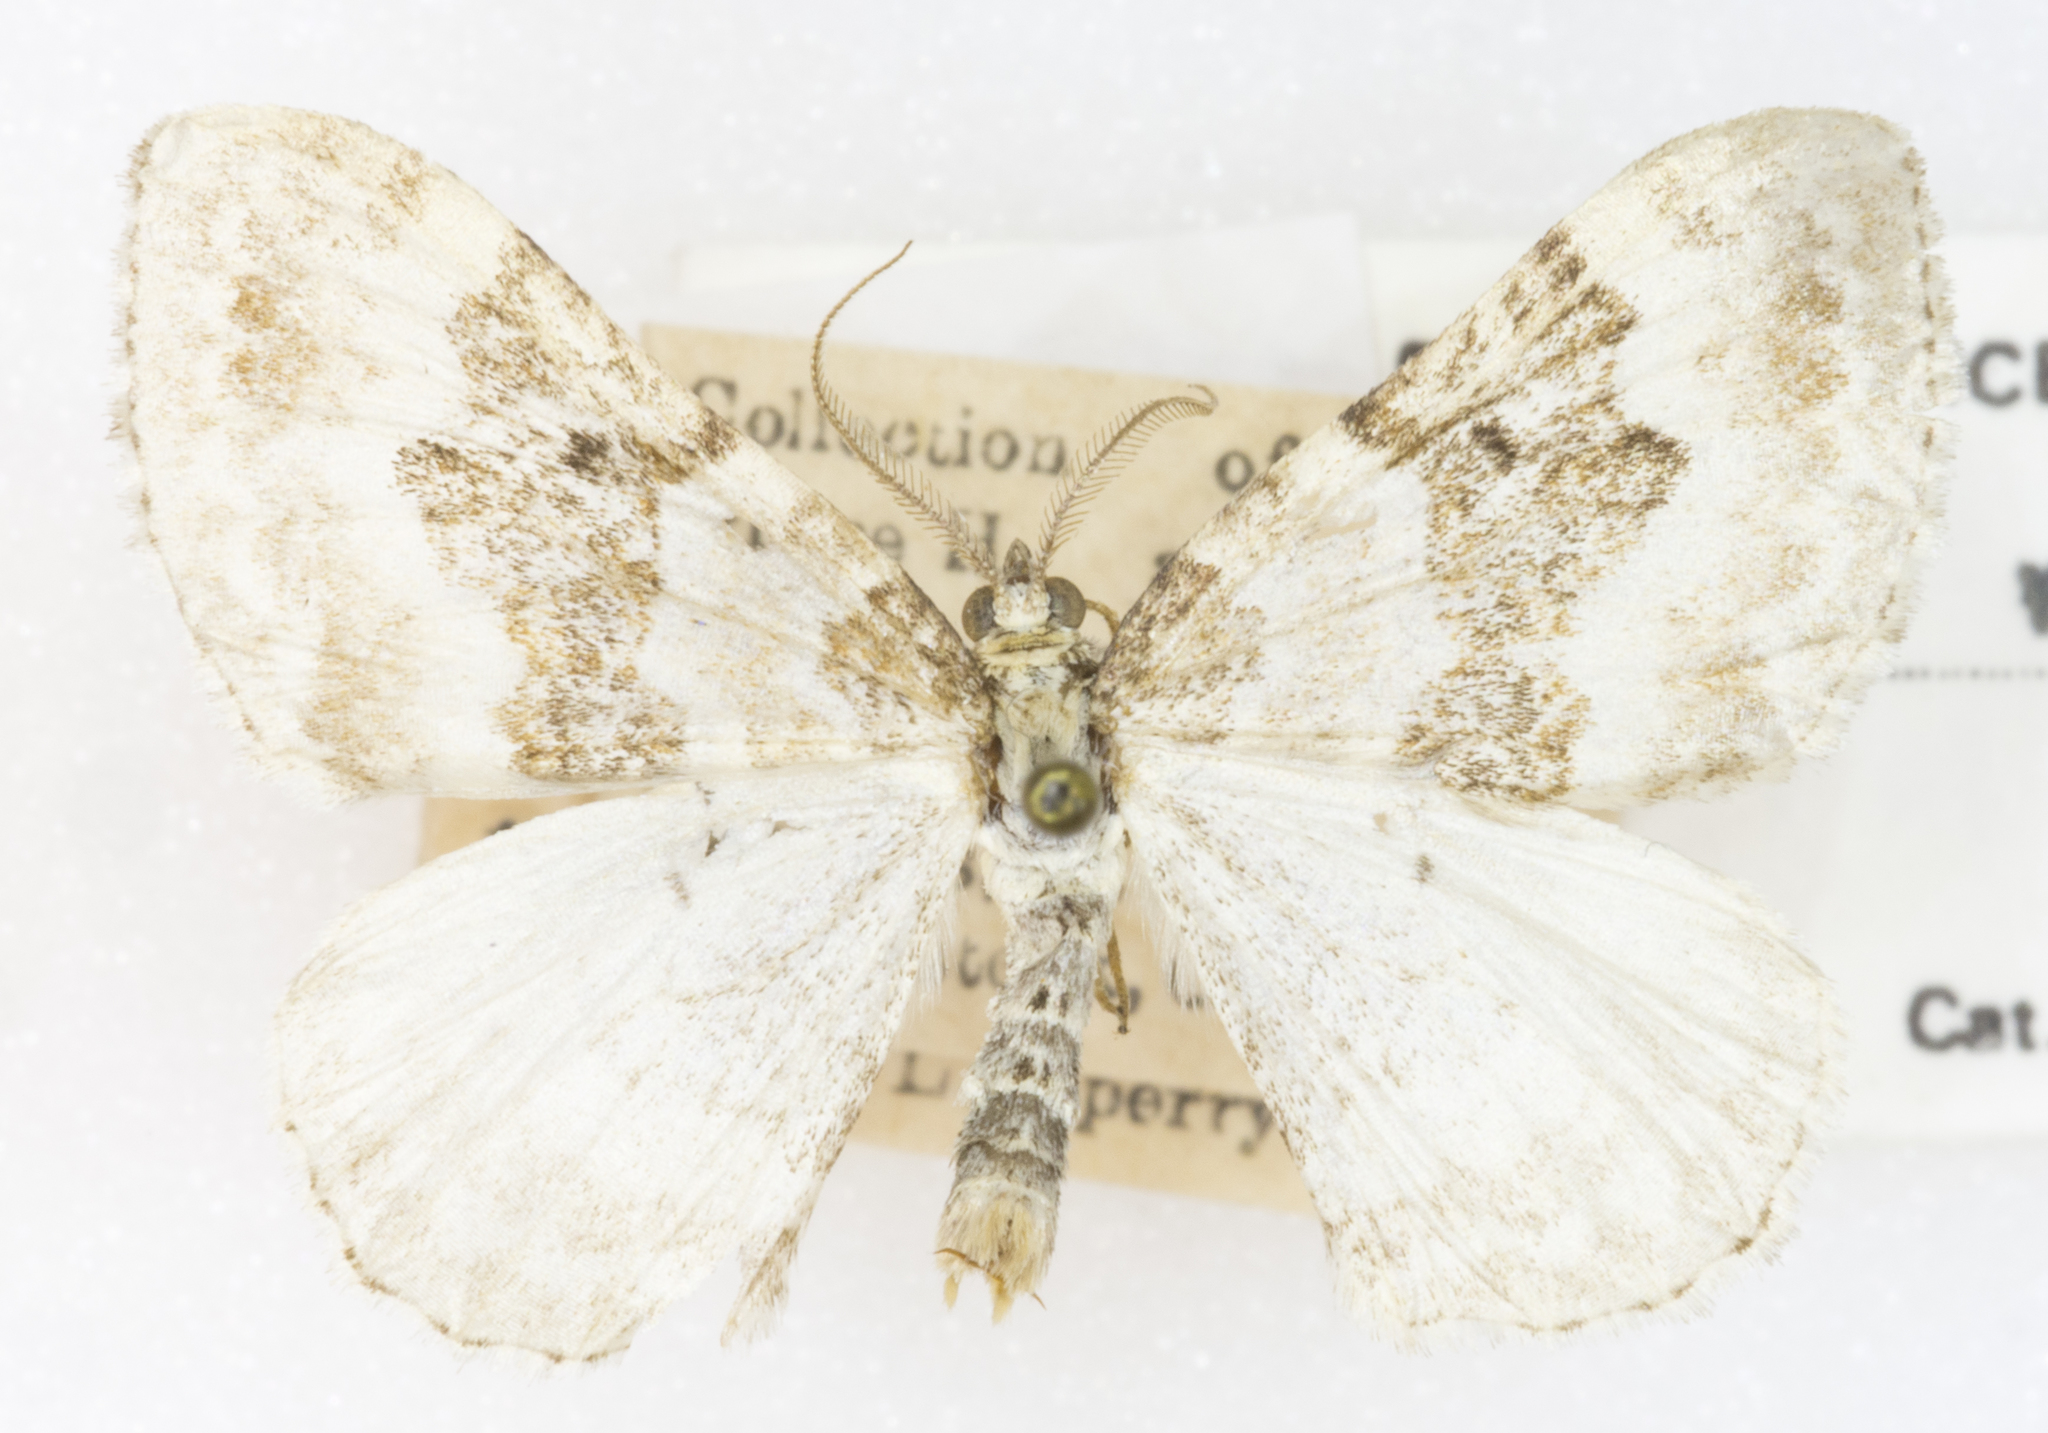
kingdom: Animalia
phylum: Arthropoda
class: Insecta
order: Lepidoptera
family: Geometridae
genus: Xanthorhoe
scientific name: Xanthorhoe montanata
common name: Silver-ground carpet
